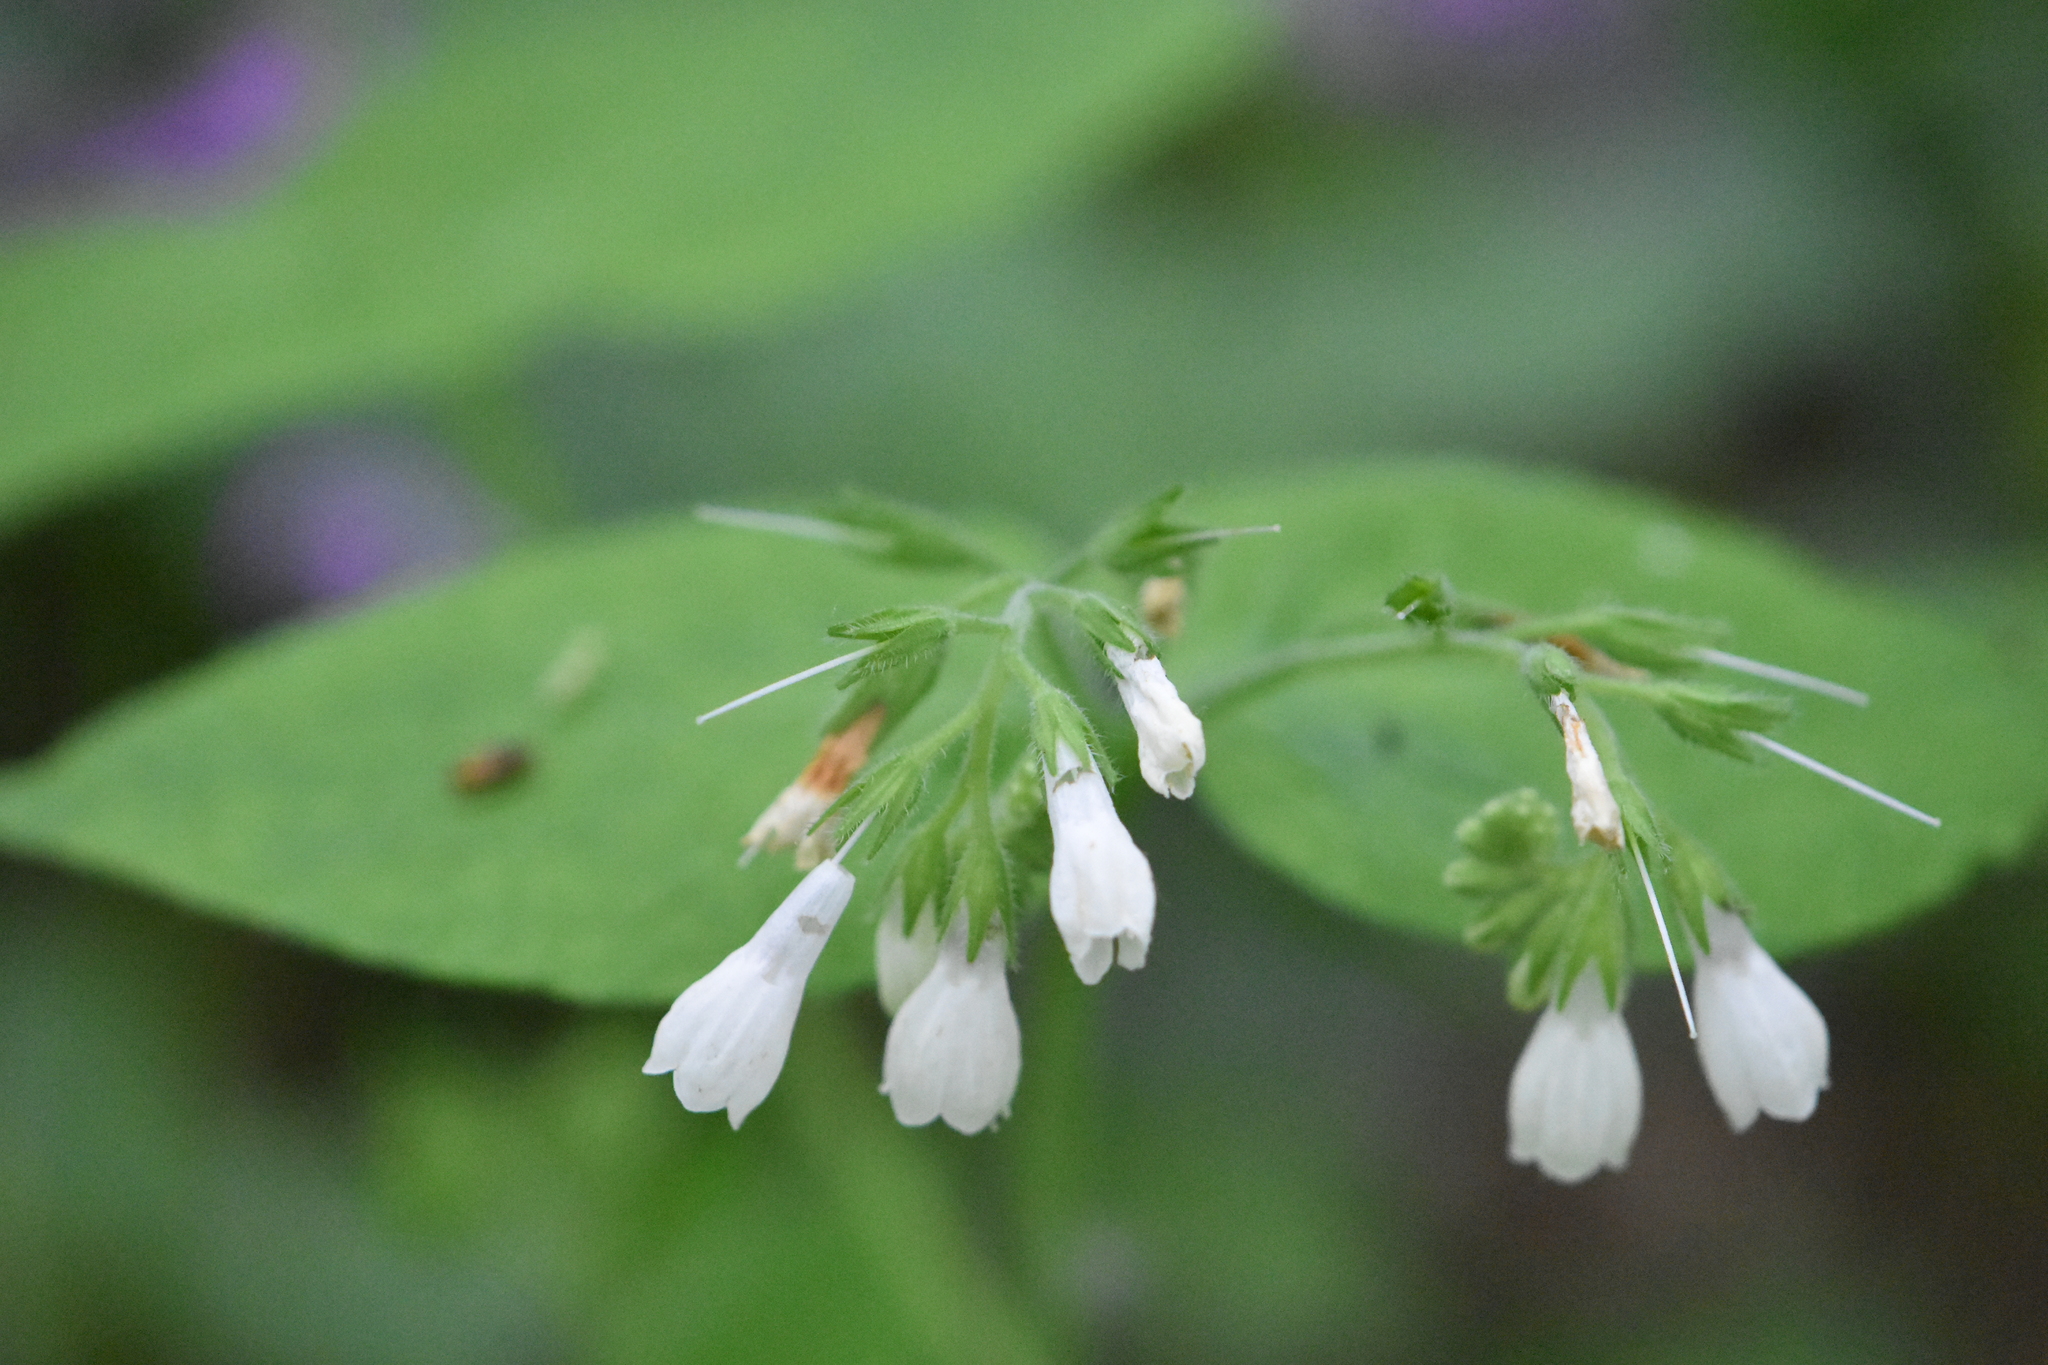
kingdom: Plantae
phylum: Tracheophyta
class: Magnoliopsida
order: Boraginales
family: Boraginaceae
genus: Symphytum
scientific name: Symphytum tauricum
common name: Crimean comfrey
